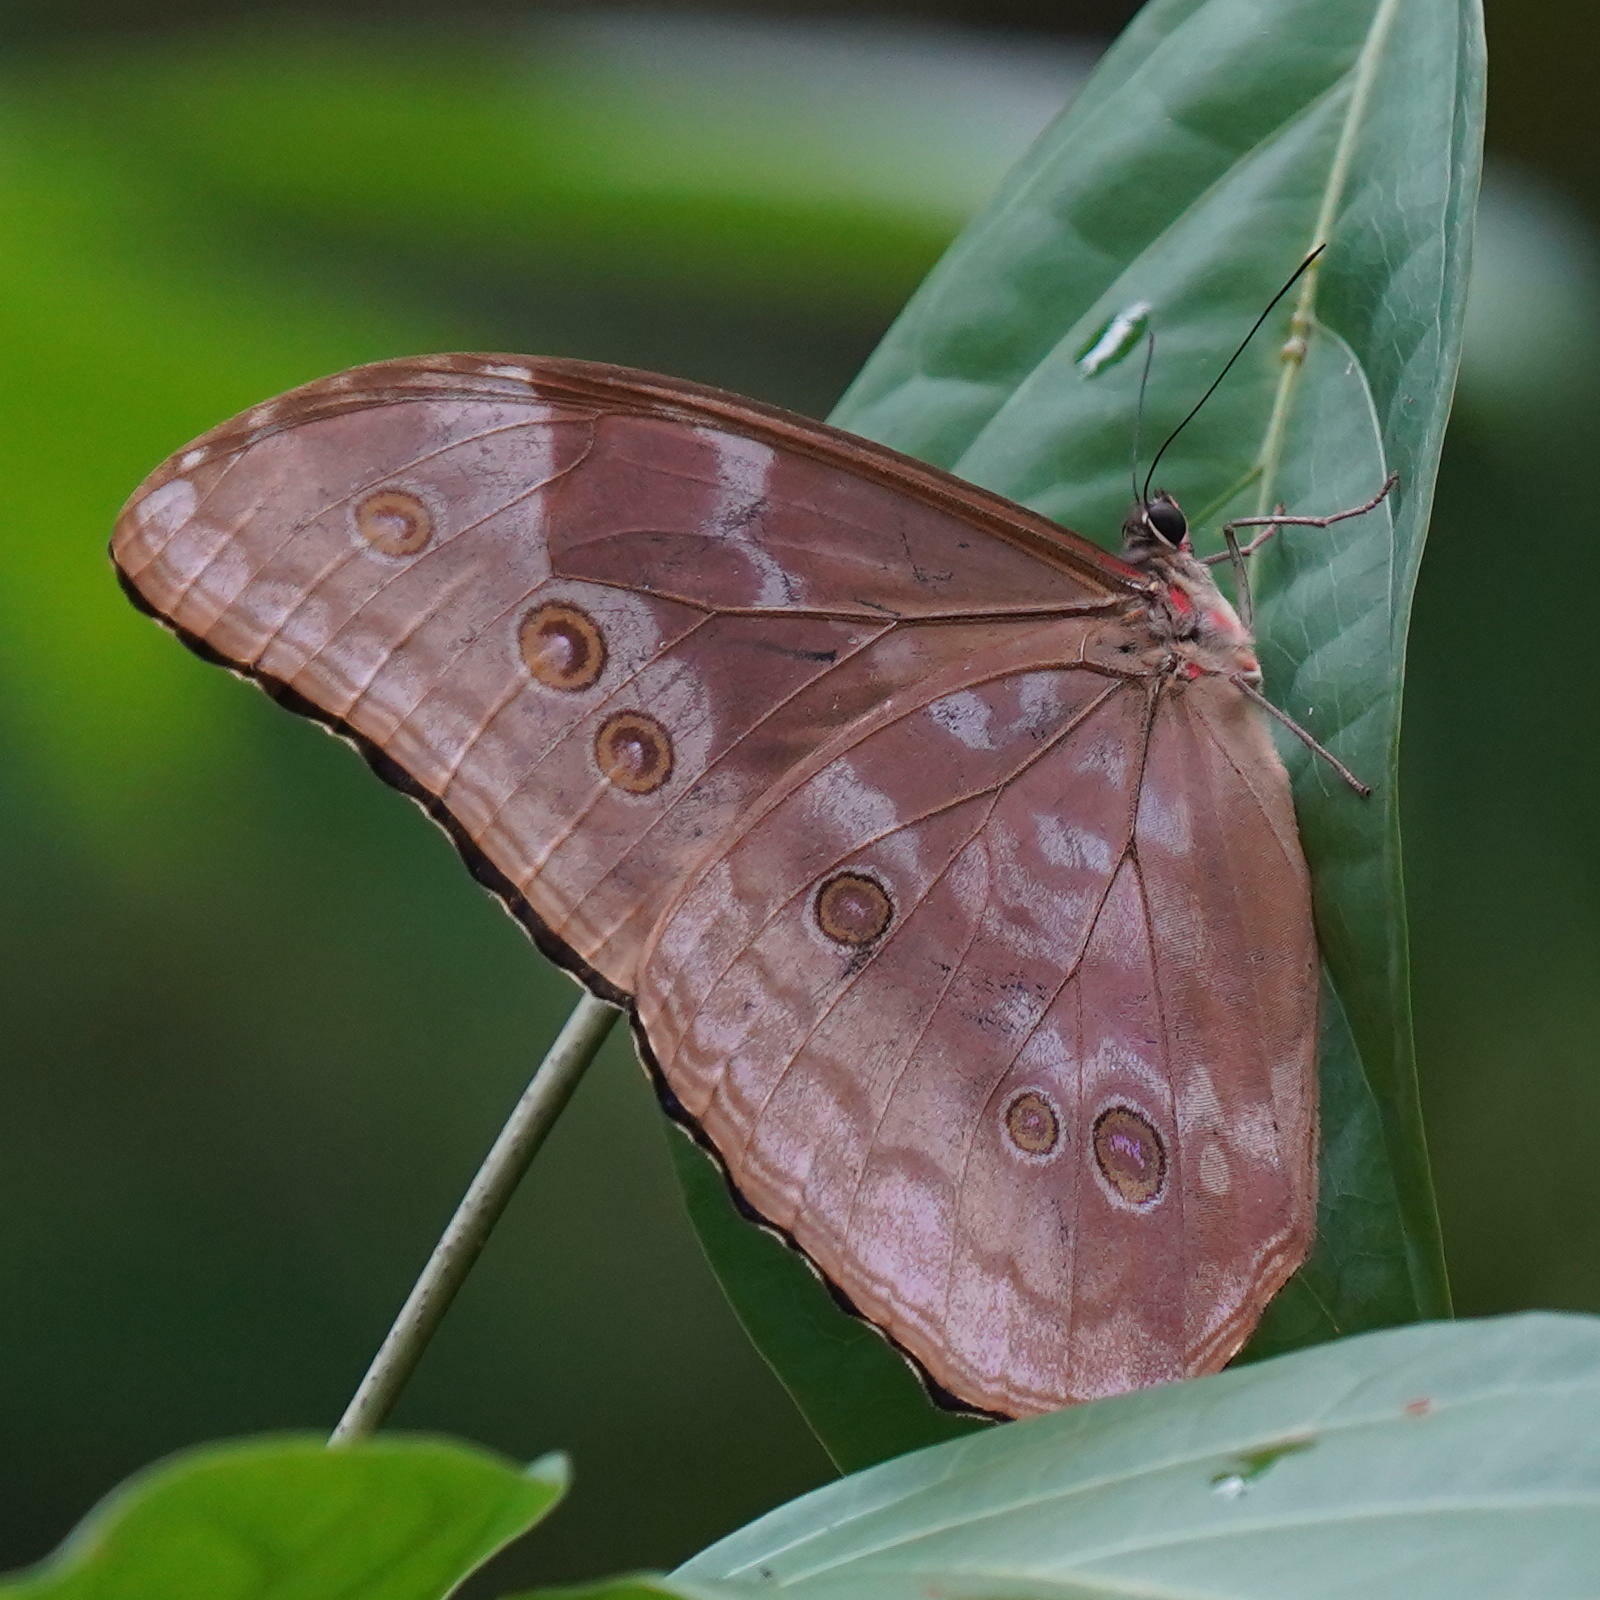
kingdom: Animalia
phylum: Arthropoda
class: Insecta
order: Lepidoptera
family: Nymphalidae
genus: Morpho
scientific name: Morpho amathonte
